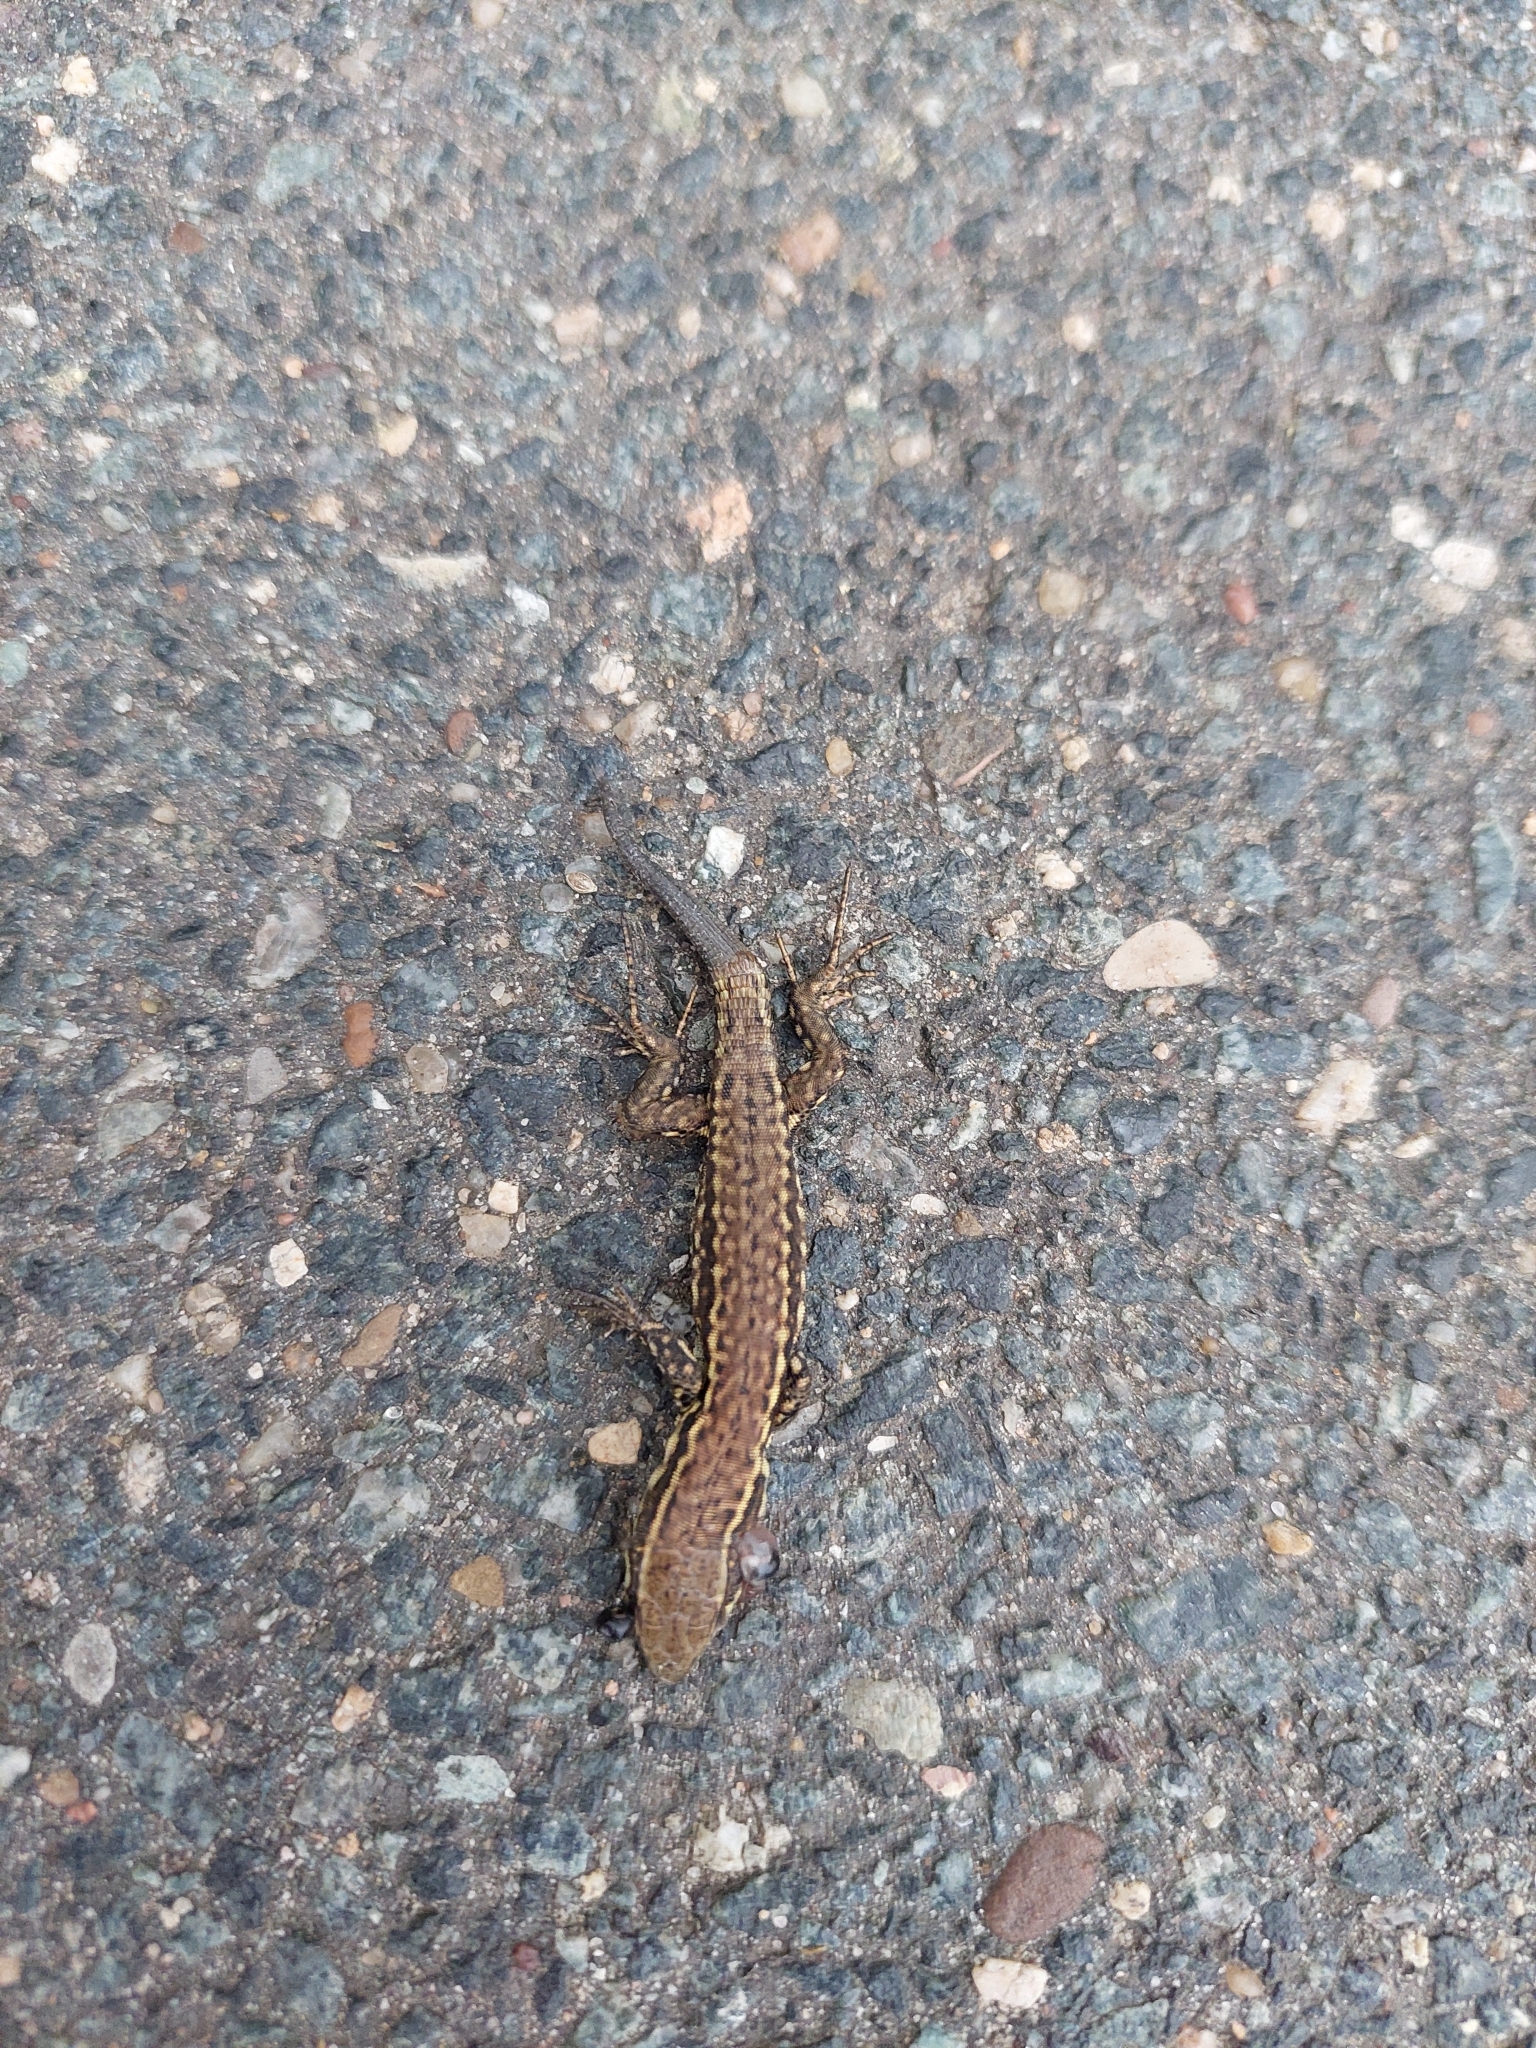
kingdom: Animalia
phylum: Chordata
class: Squamata
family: Lacertidae
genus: Podarcis
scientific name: Podarcis muralis
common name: Common wall lizard
